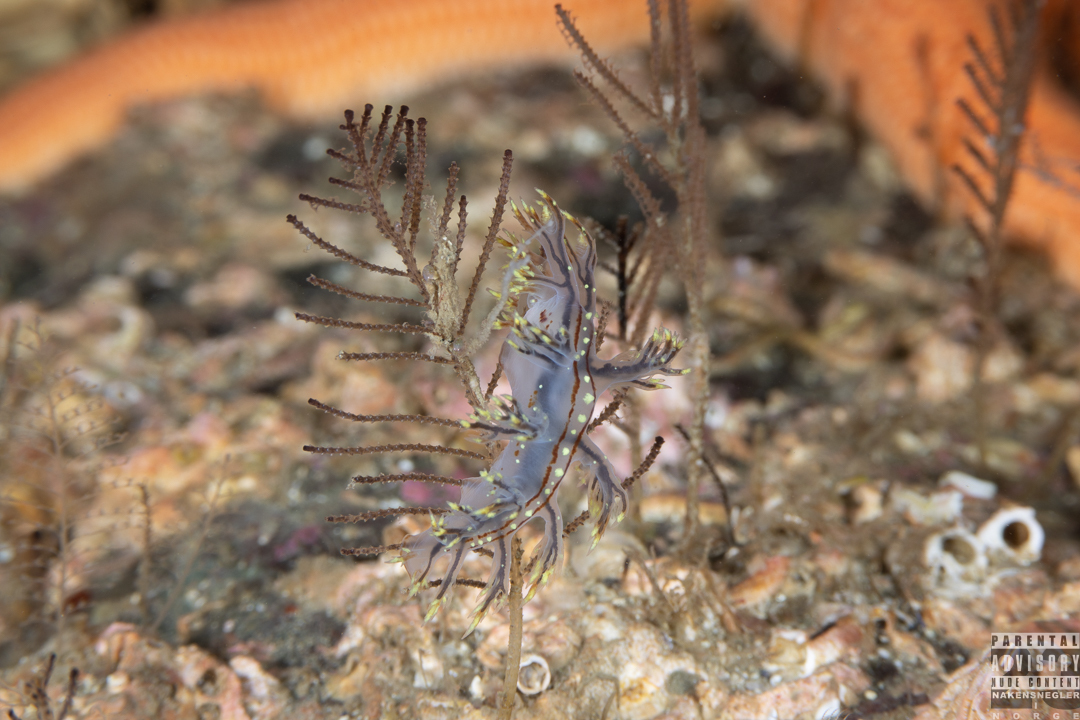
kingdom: Animalia
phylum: Mollusca
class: Gastropoda
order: Nudibranchia
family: Dendronotidae
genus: Dendronotus
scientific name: Dendronotus yrjargul
